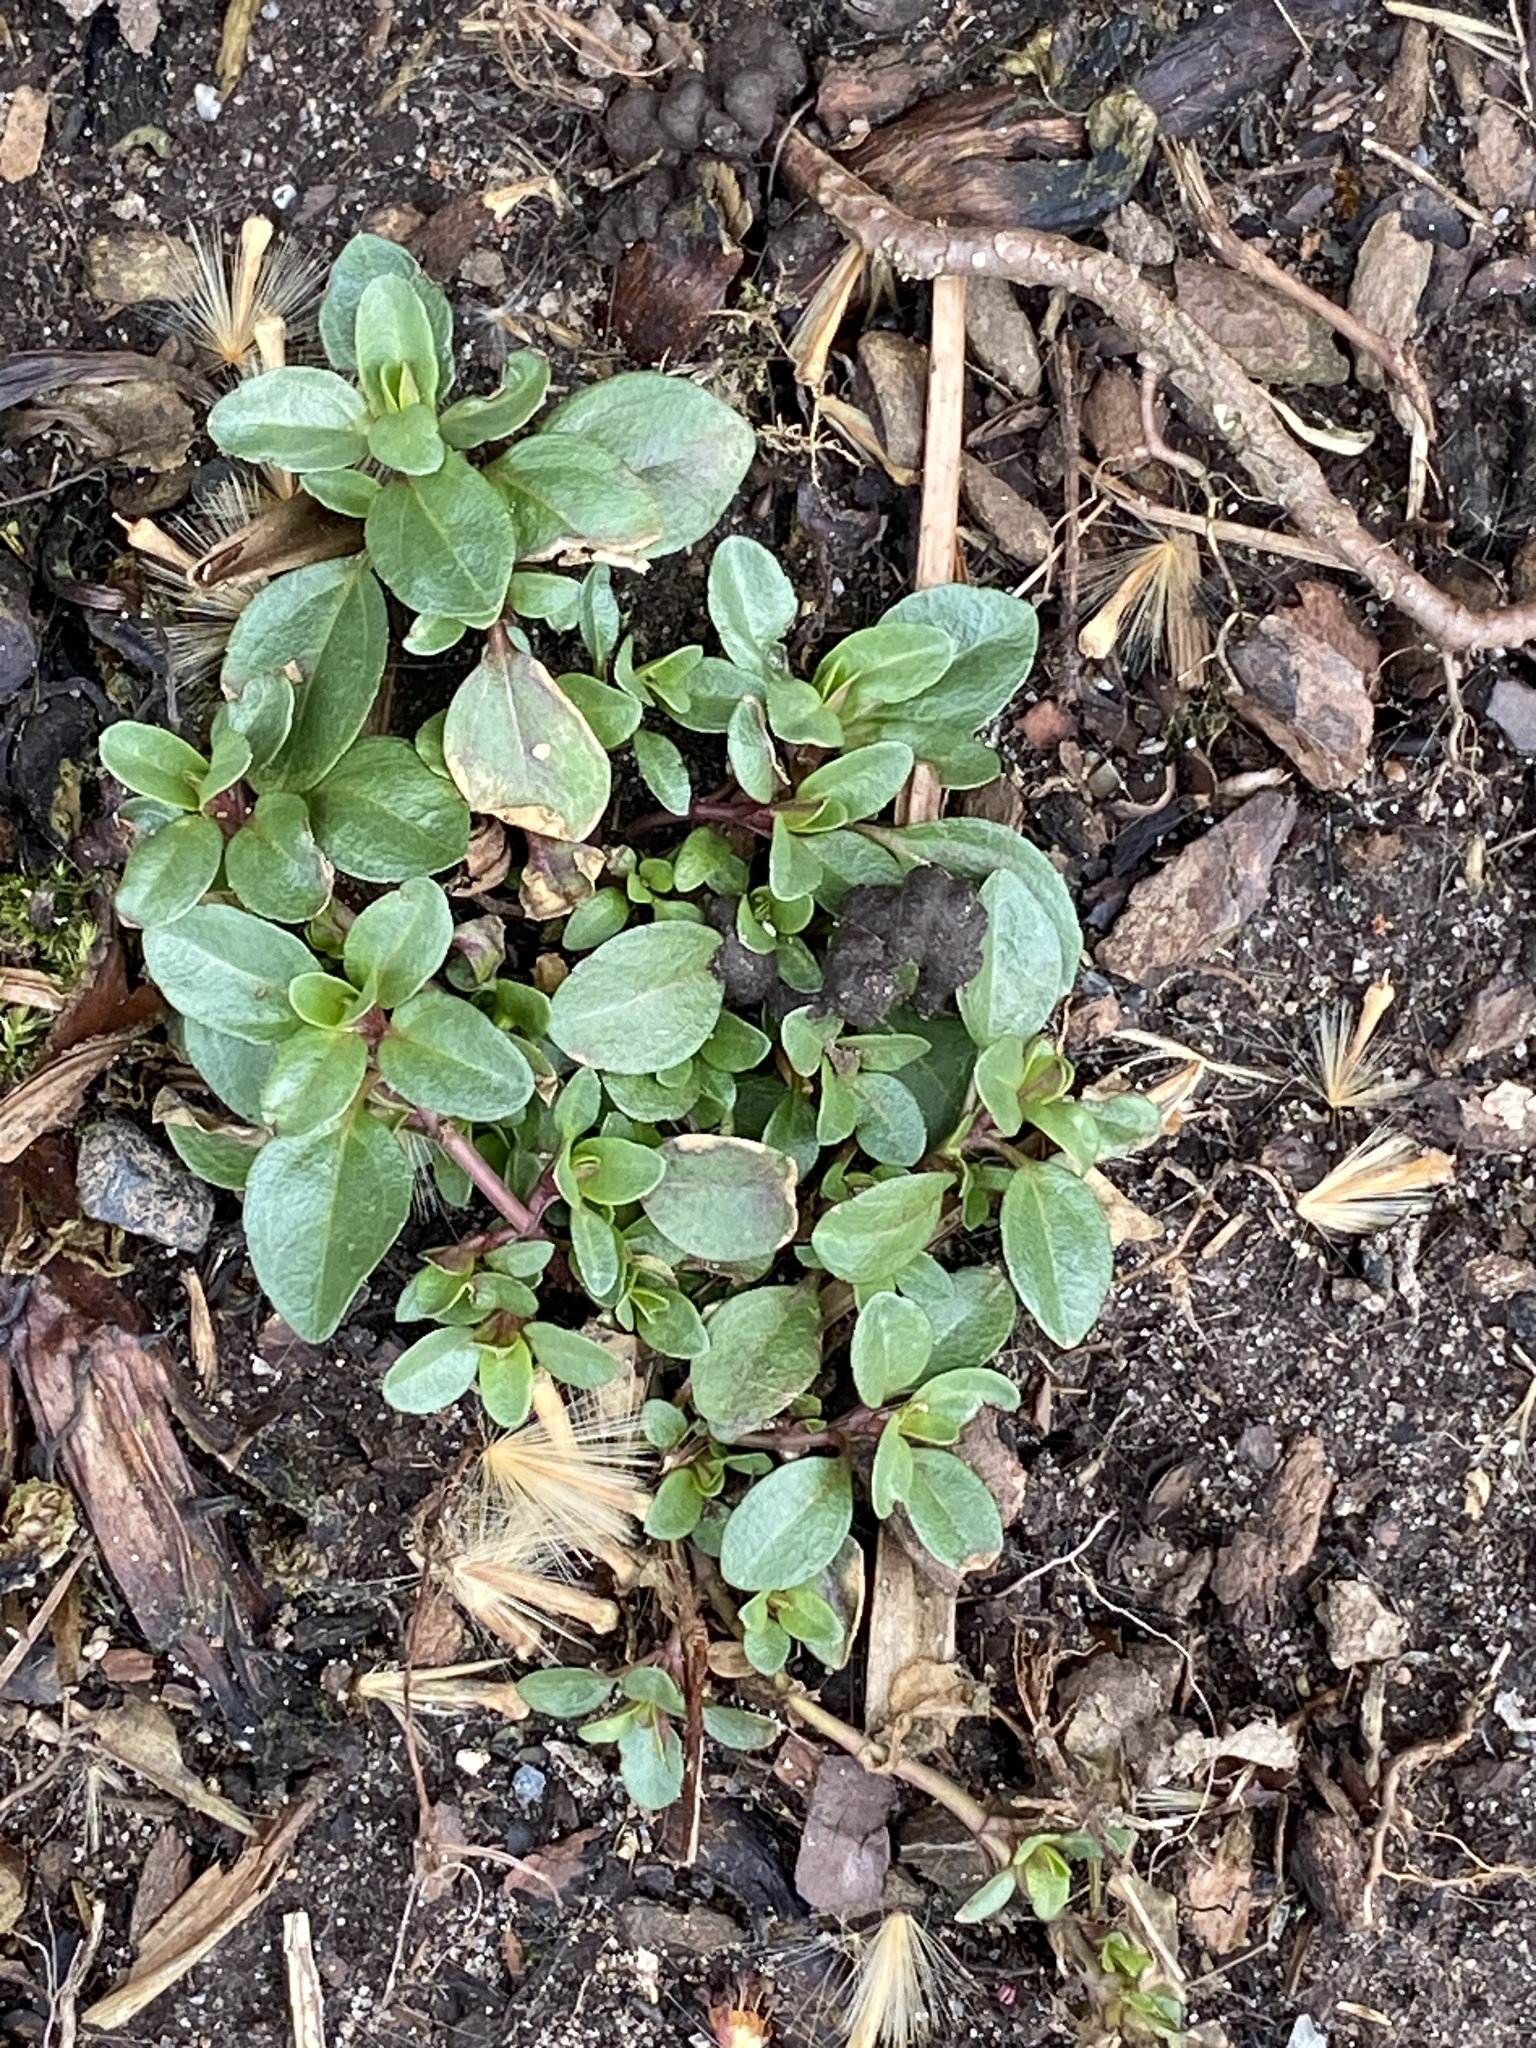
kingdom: Plantae
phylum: Tracheophyta
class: Magnoliopsida
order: Lamiales
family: Plantaginaceae
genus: Veronica
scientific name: Veronica serpyllifolia
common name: Thyme-leaved speedwell
